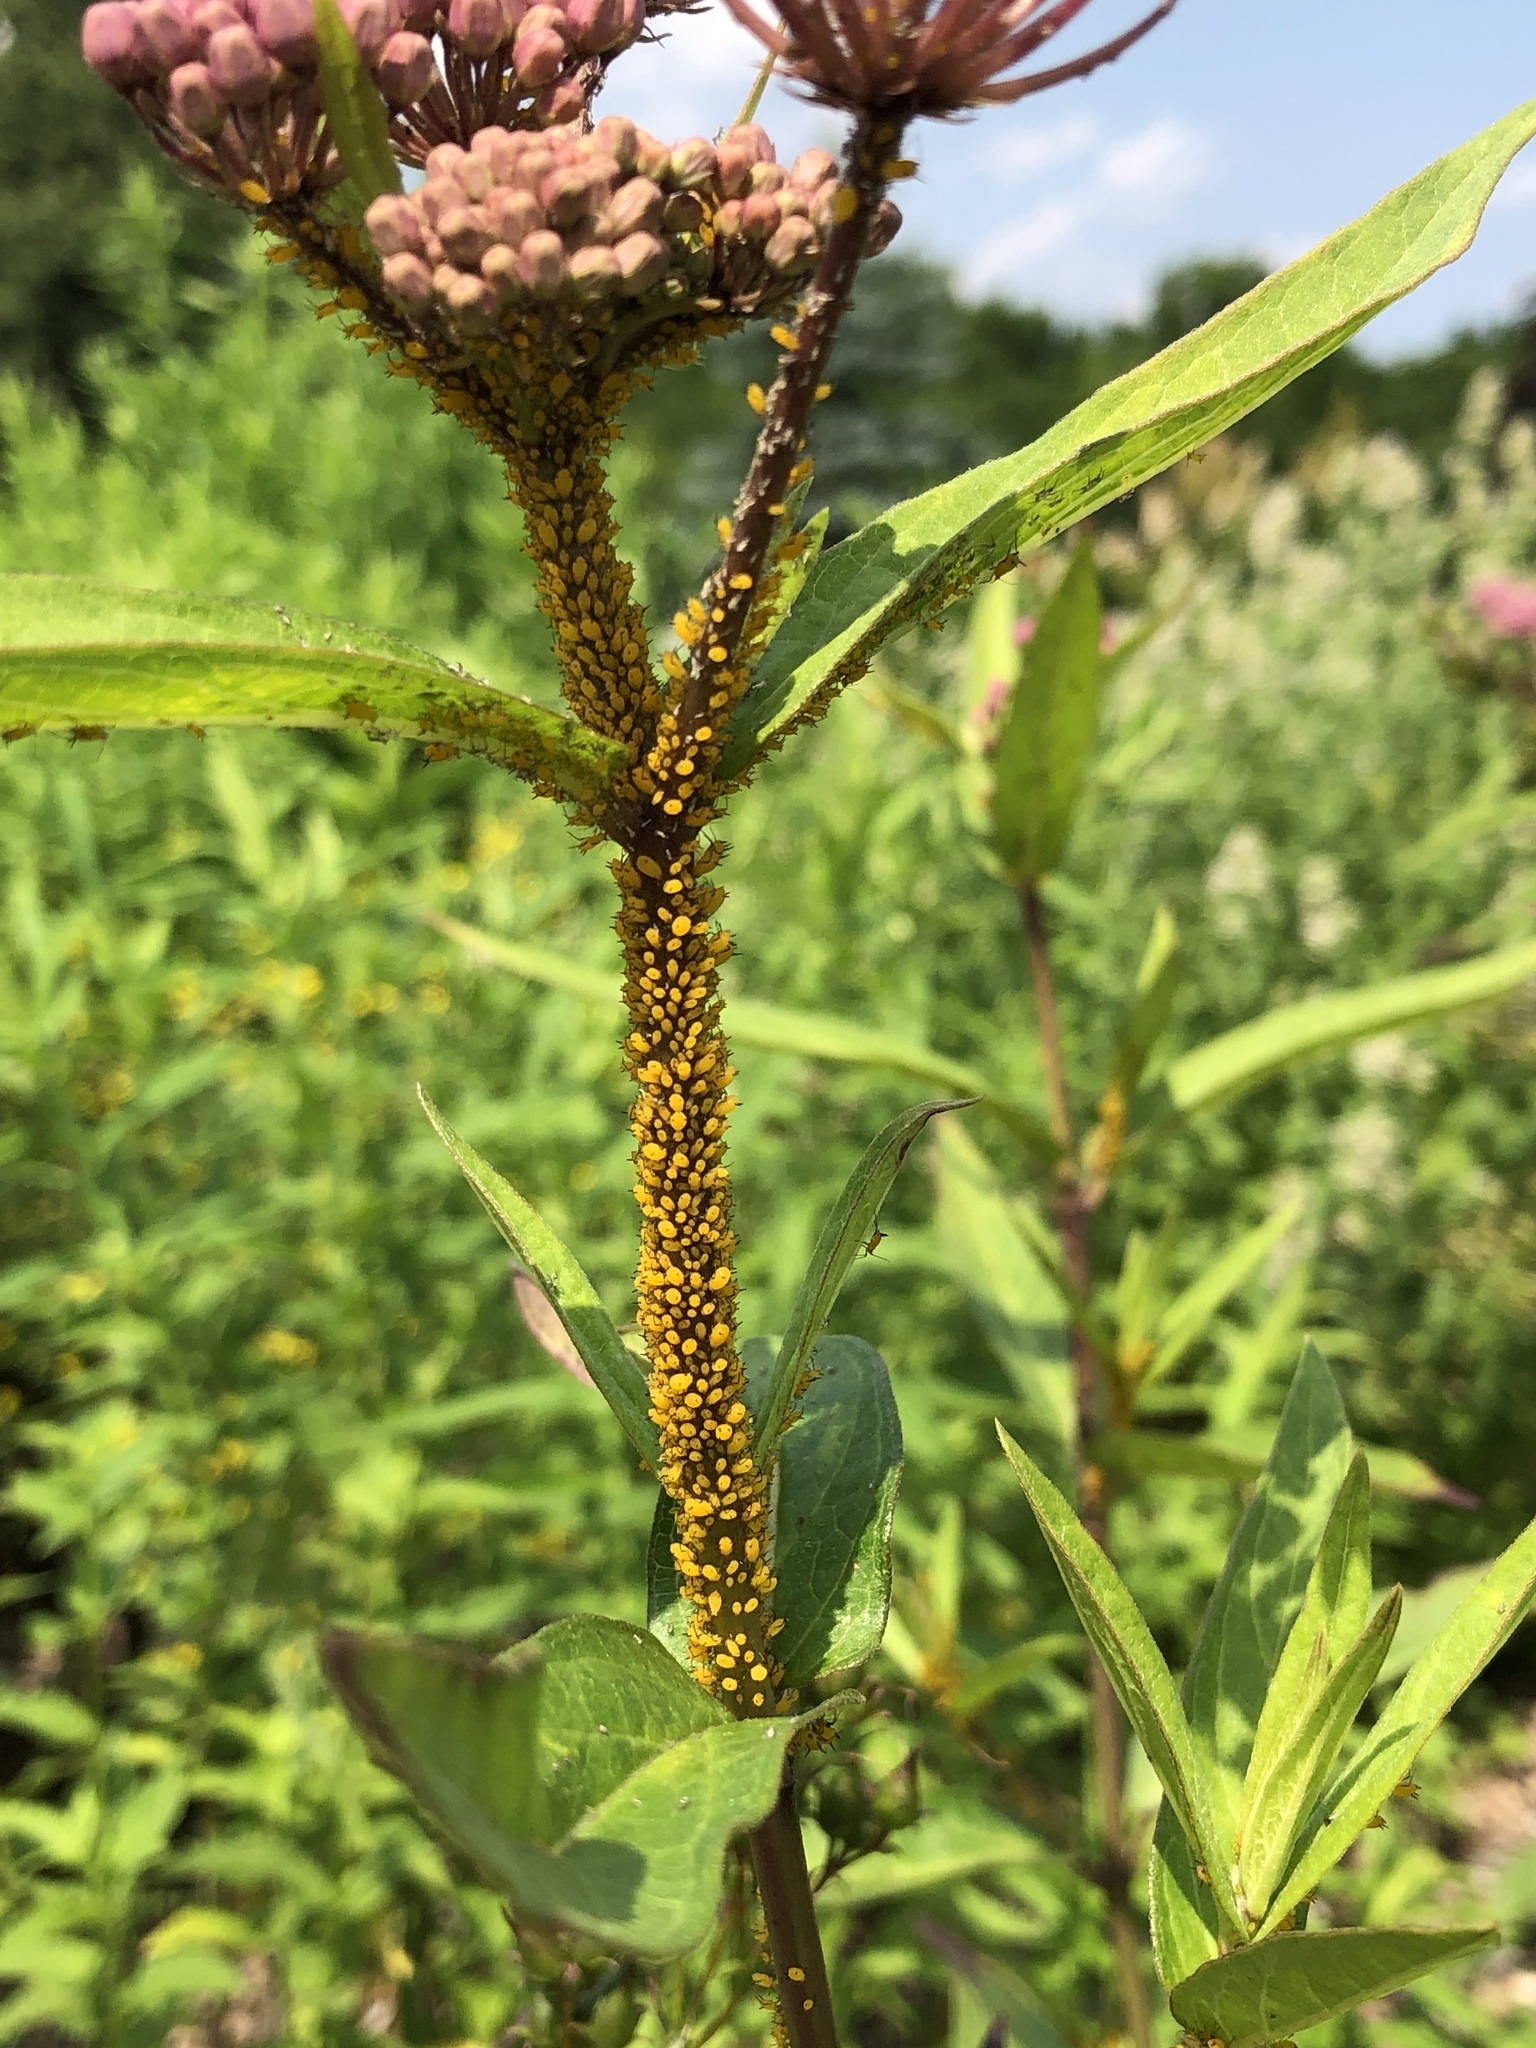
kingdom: Animalia
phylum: Arthropoda
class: Insecta
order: Hemiptera
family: Aphididae
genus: Aphis
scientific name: Aphis nerii
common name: Oleander aphid
